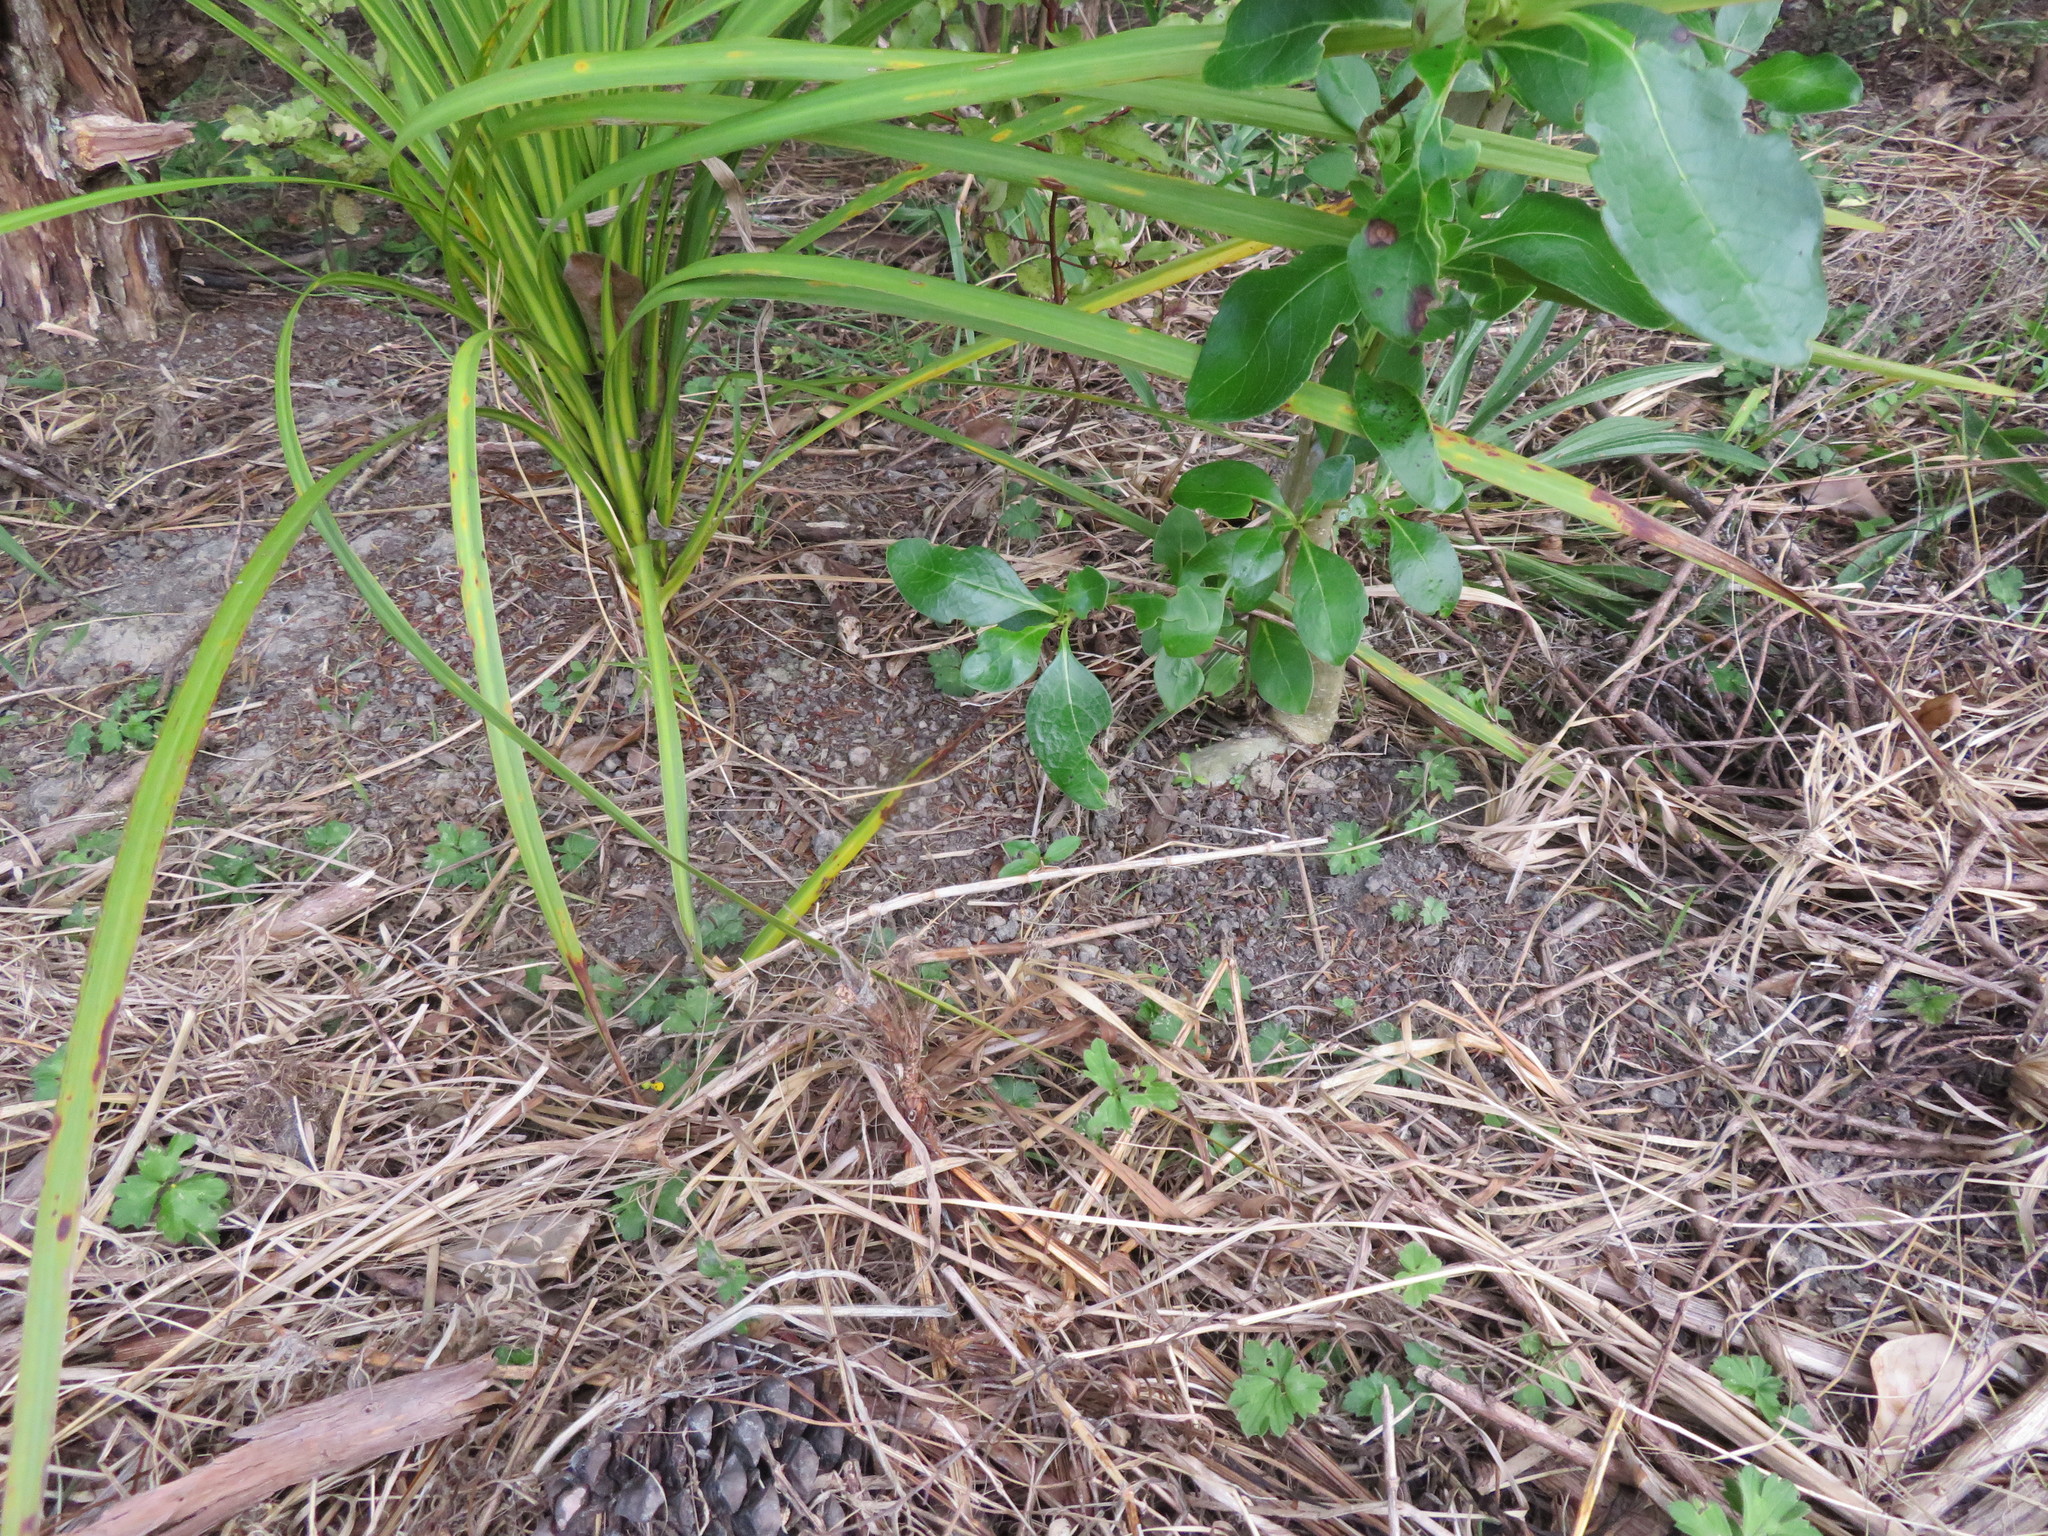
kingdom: Plantae
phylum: Tracheophyta
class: Liliopsida
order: Asparagales
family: Asparagaceae
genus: Cordyline
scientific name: Cordyline australis
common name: Cabbage-palm
